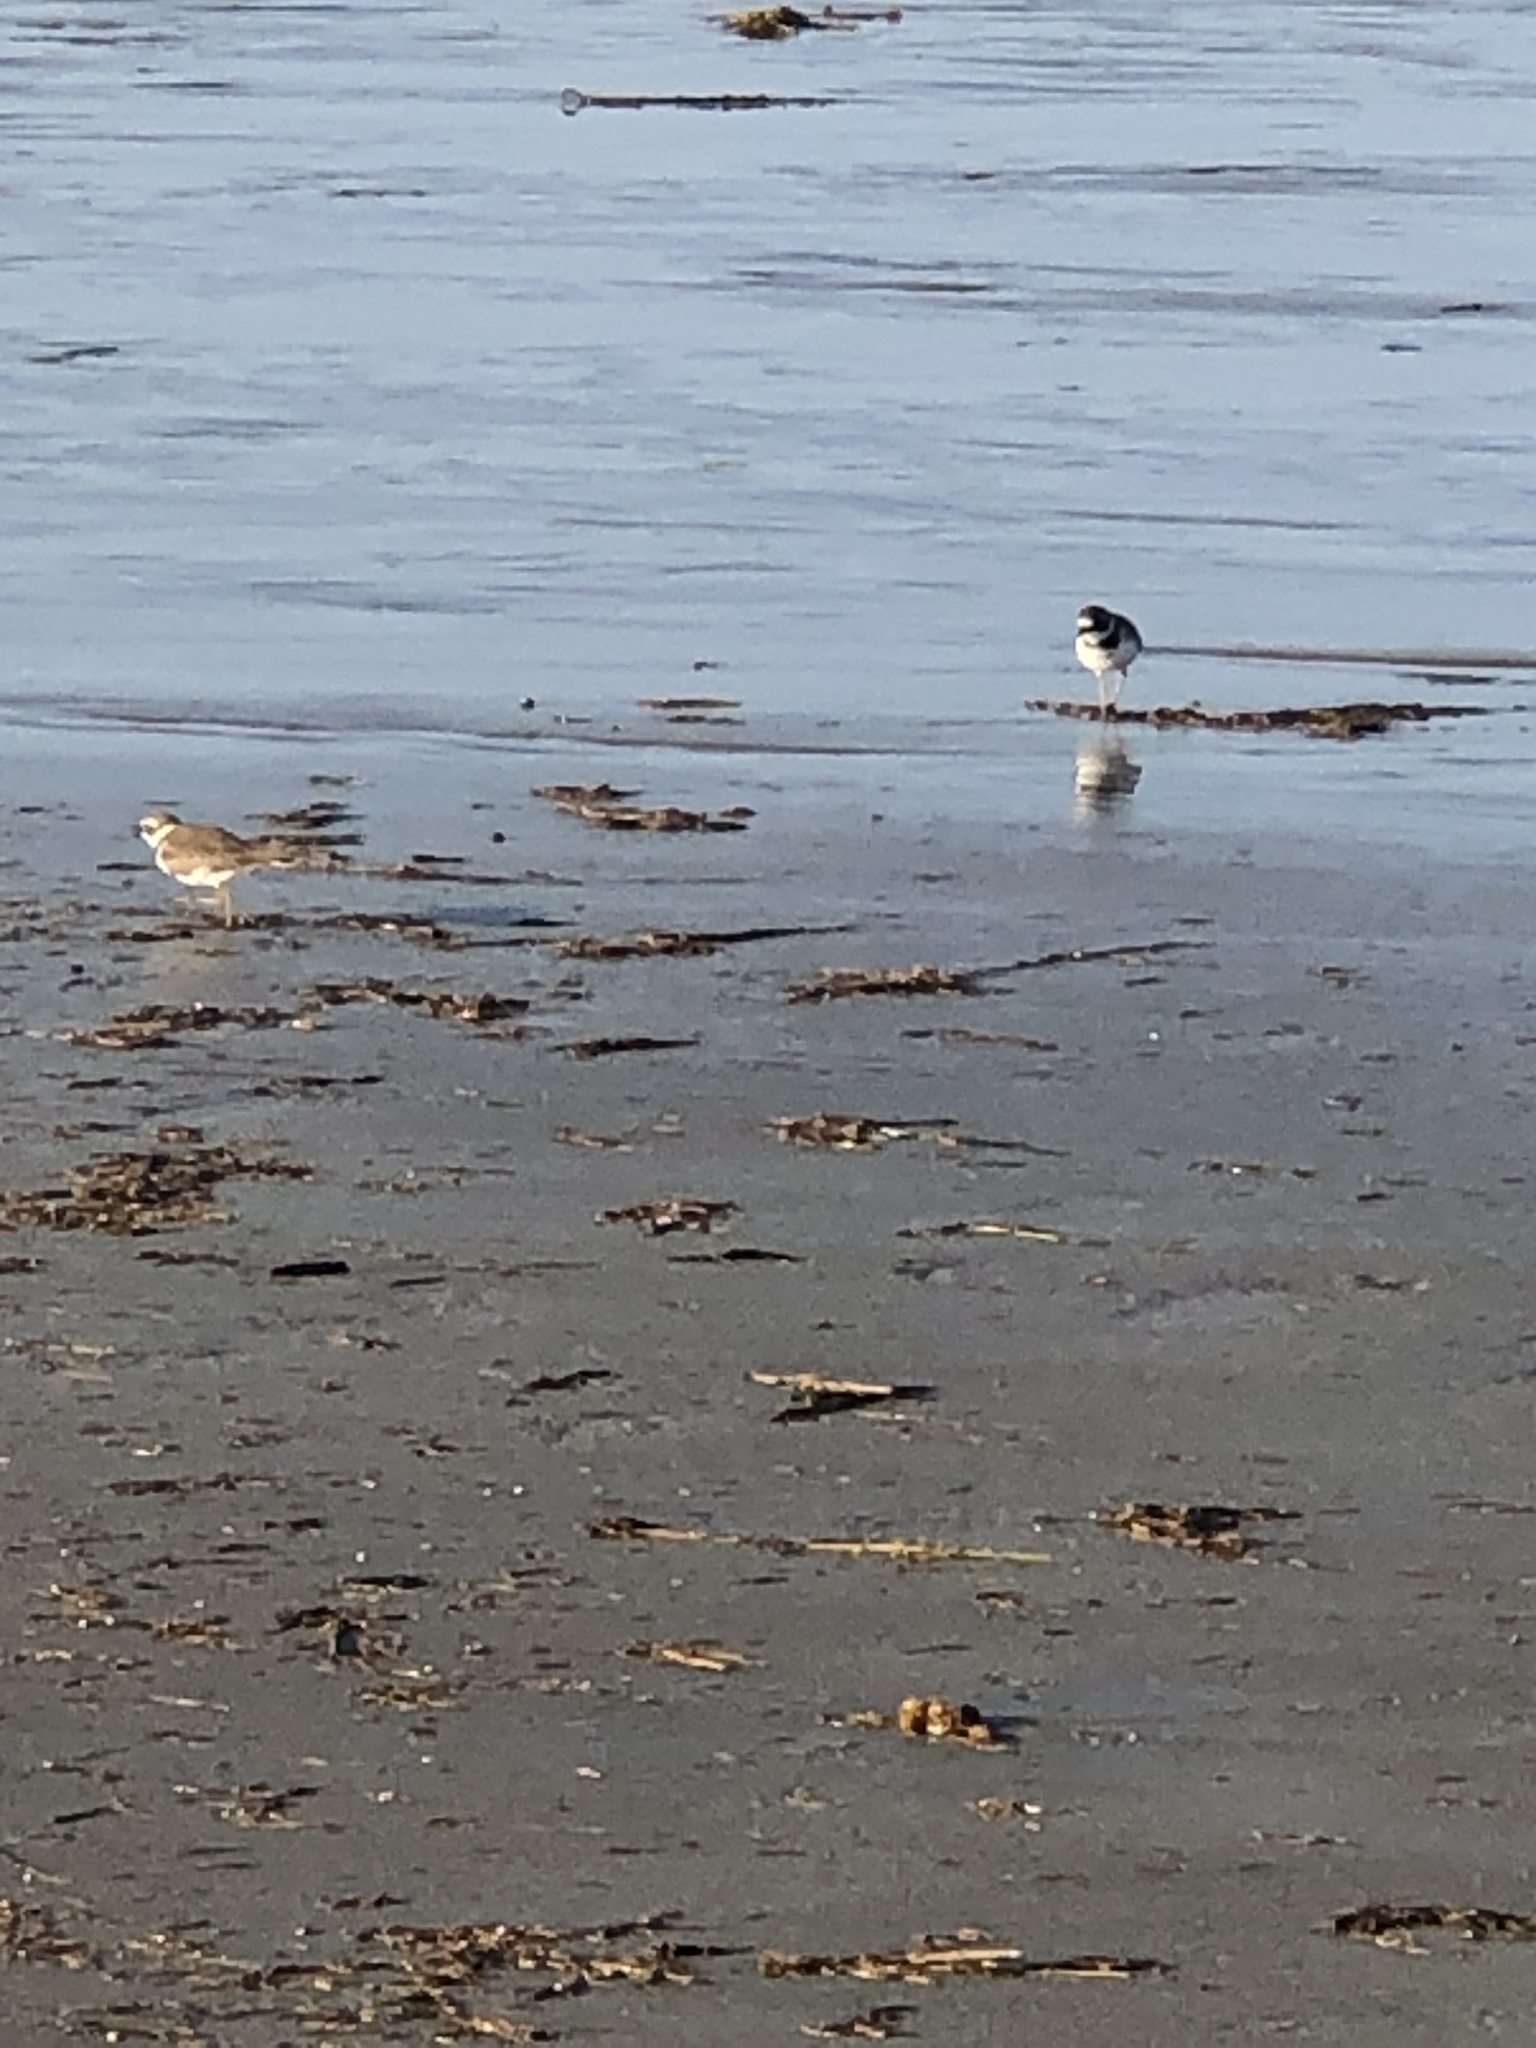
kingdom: Animalia
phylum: Chordata
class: Aves
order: Charadriiformes
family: Charadriidae
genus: Charadrius
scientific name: Charadrius semipalmatus
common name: Semipalmated plover
